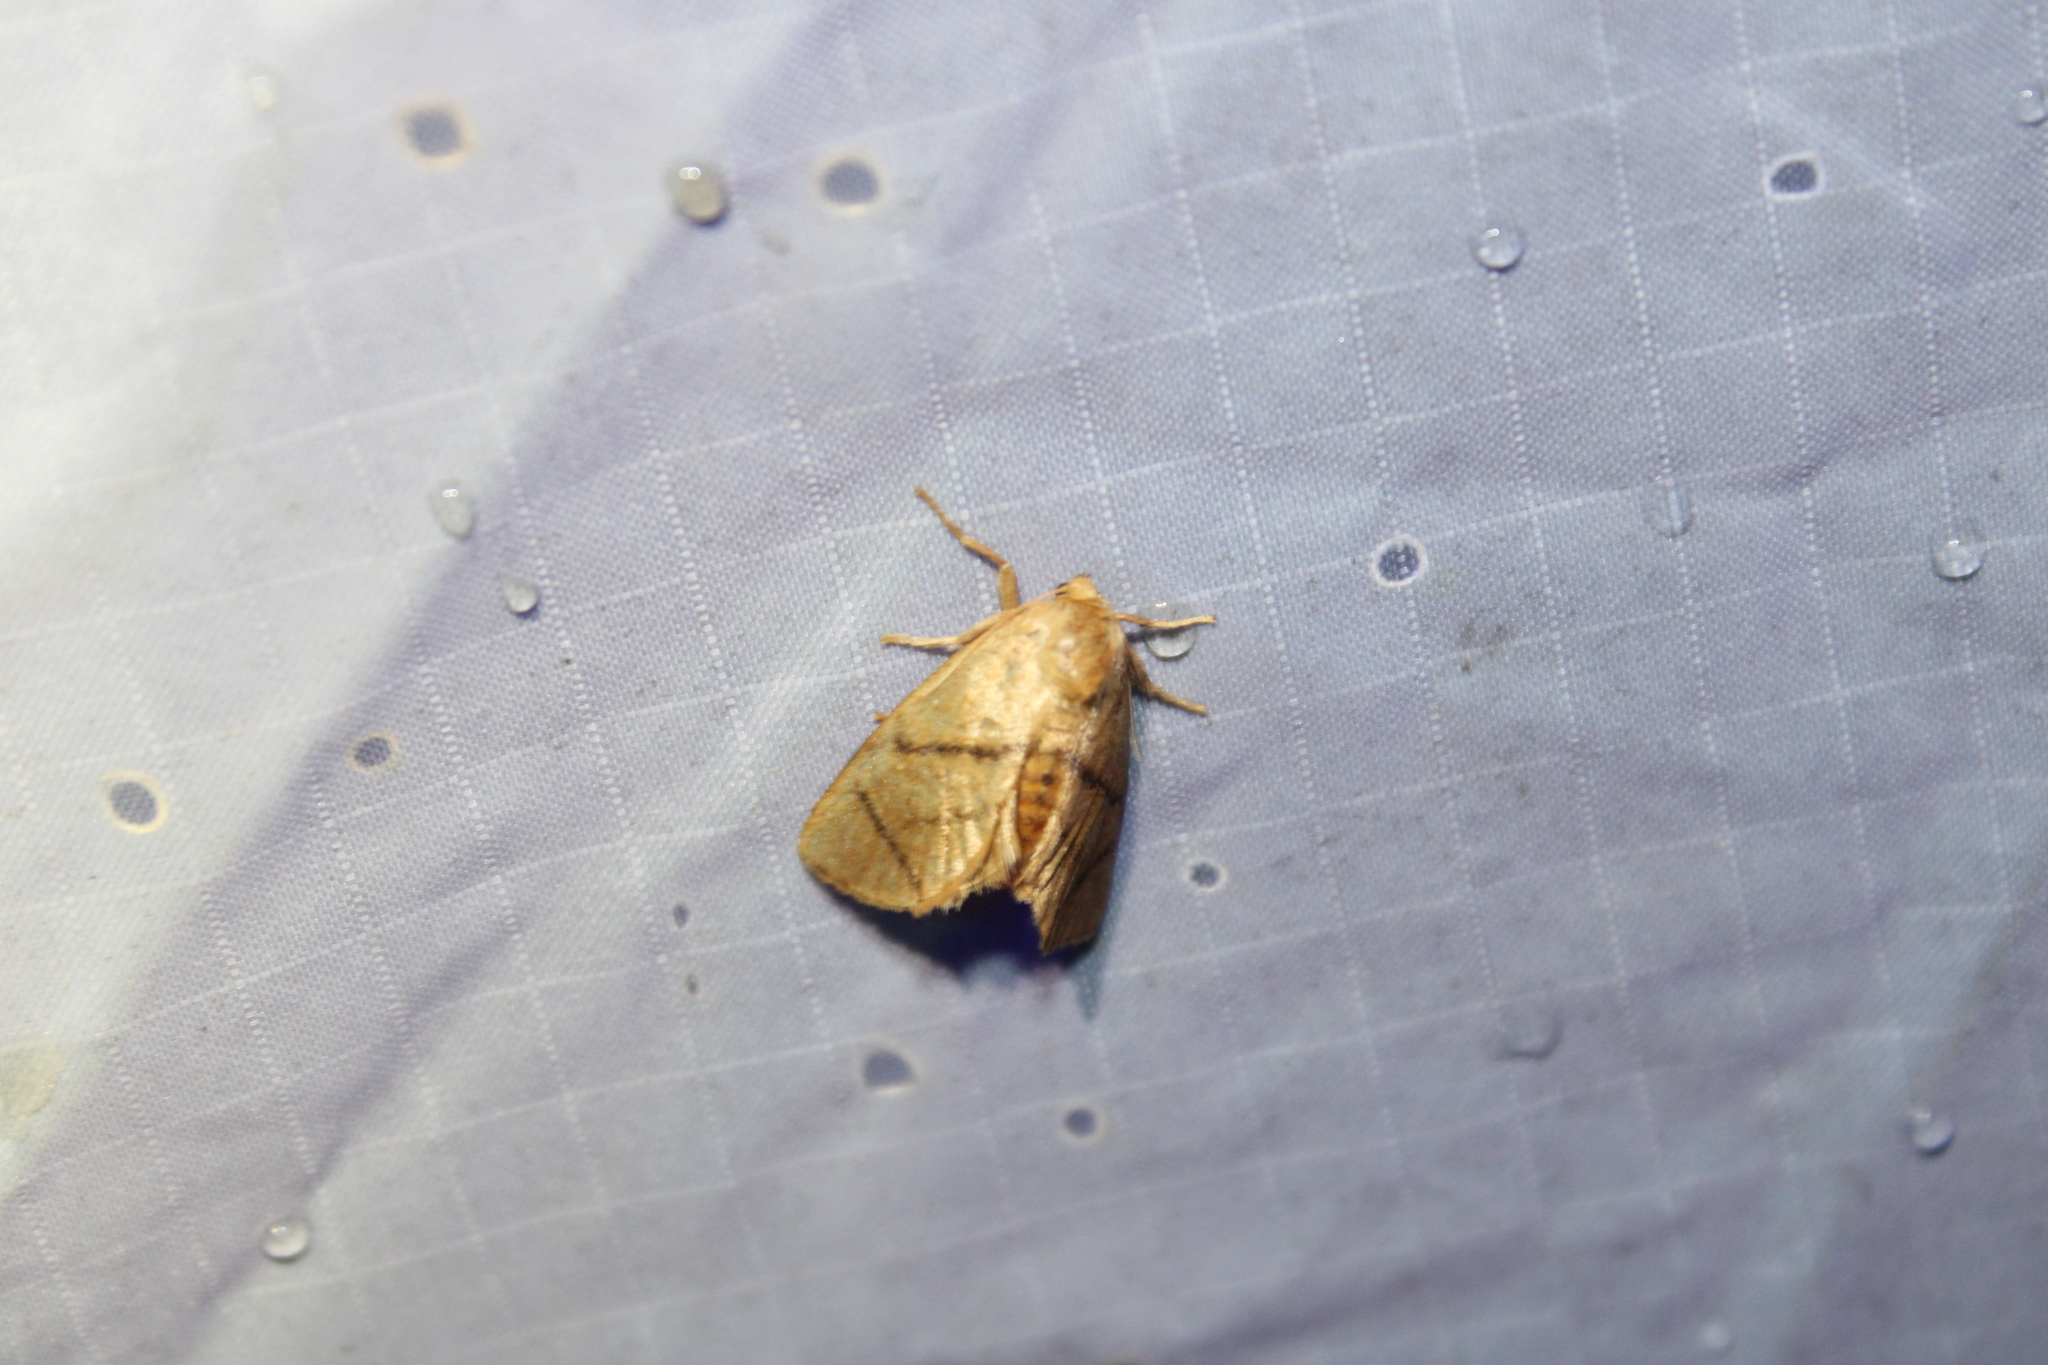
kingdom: Animalia
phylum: Arthropoda
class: Insecta
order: Lepidoptera
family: Limacodidae
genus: Apoda
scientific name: Apoda y-inversa
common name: Yellow-collared slug moth
